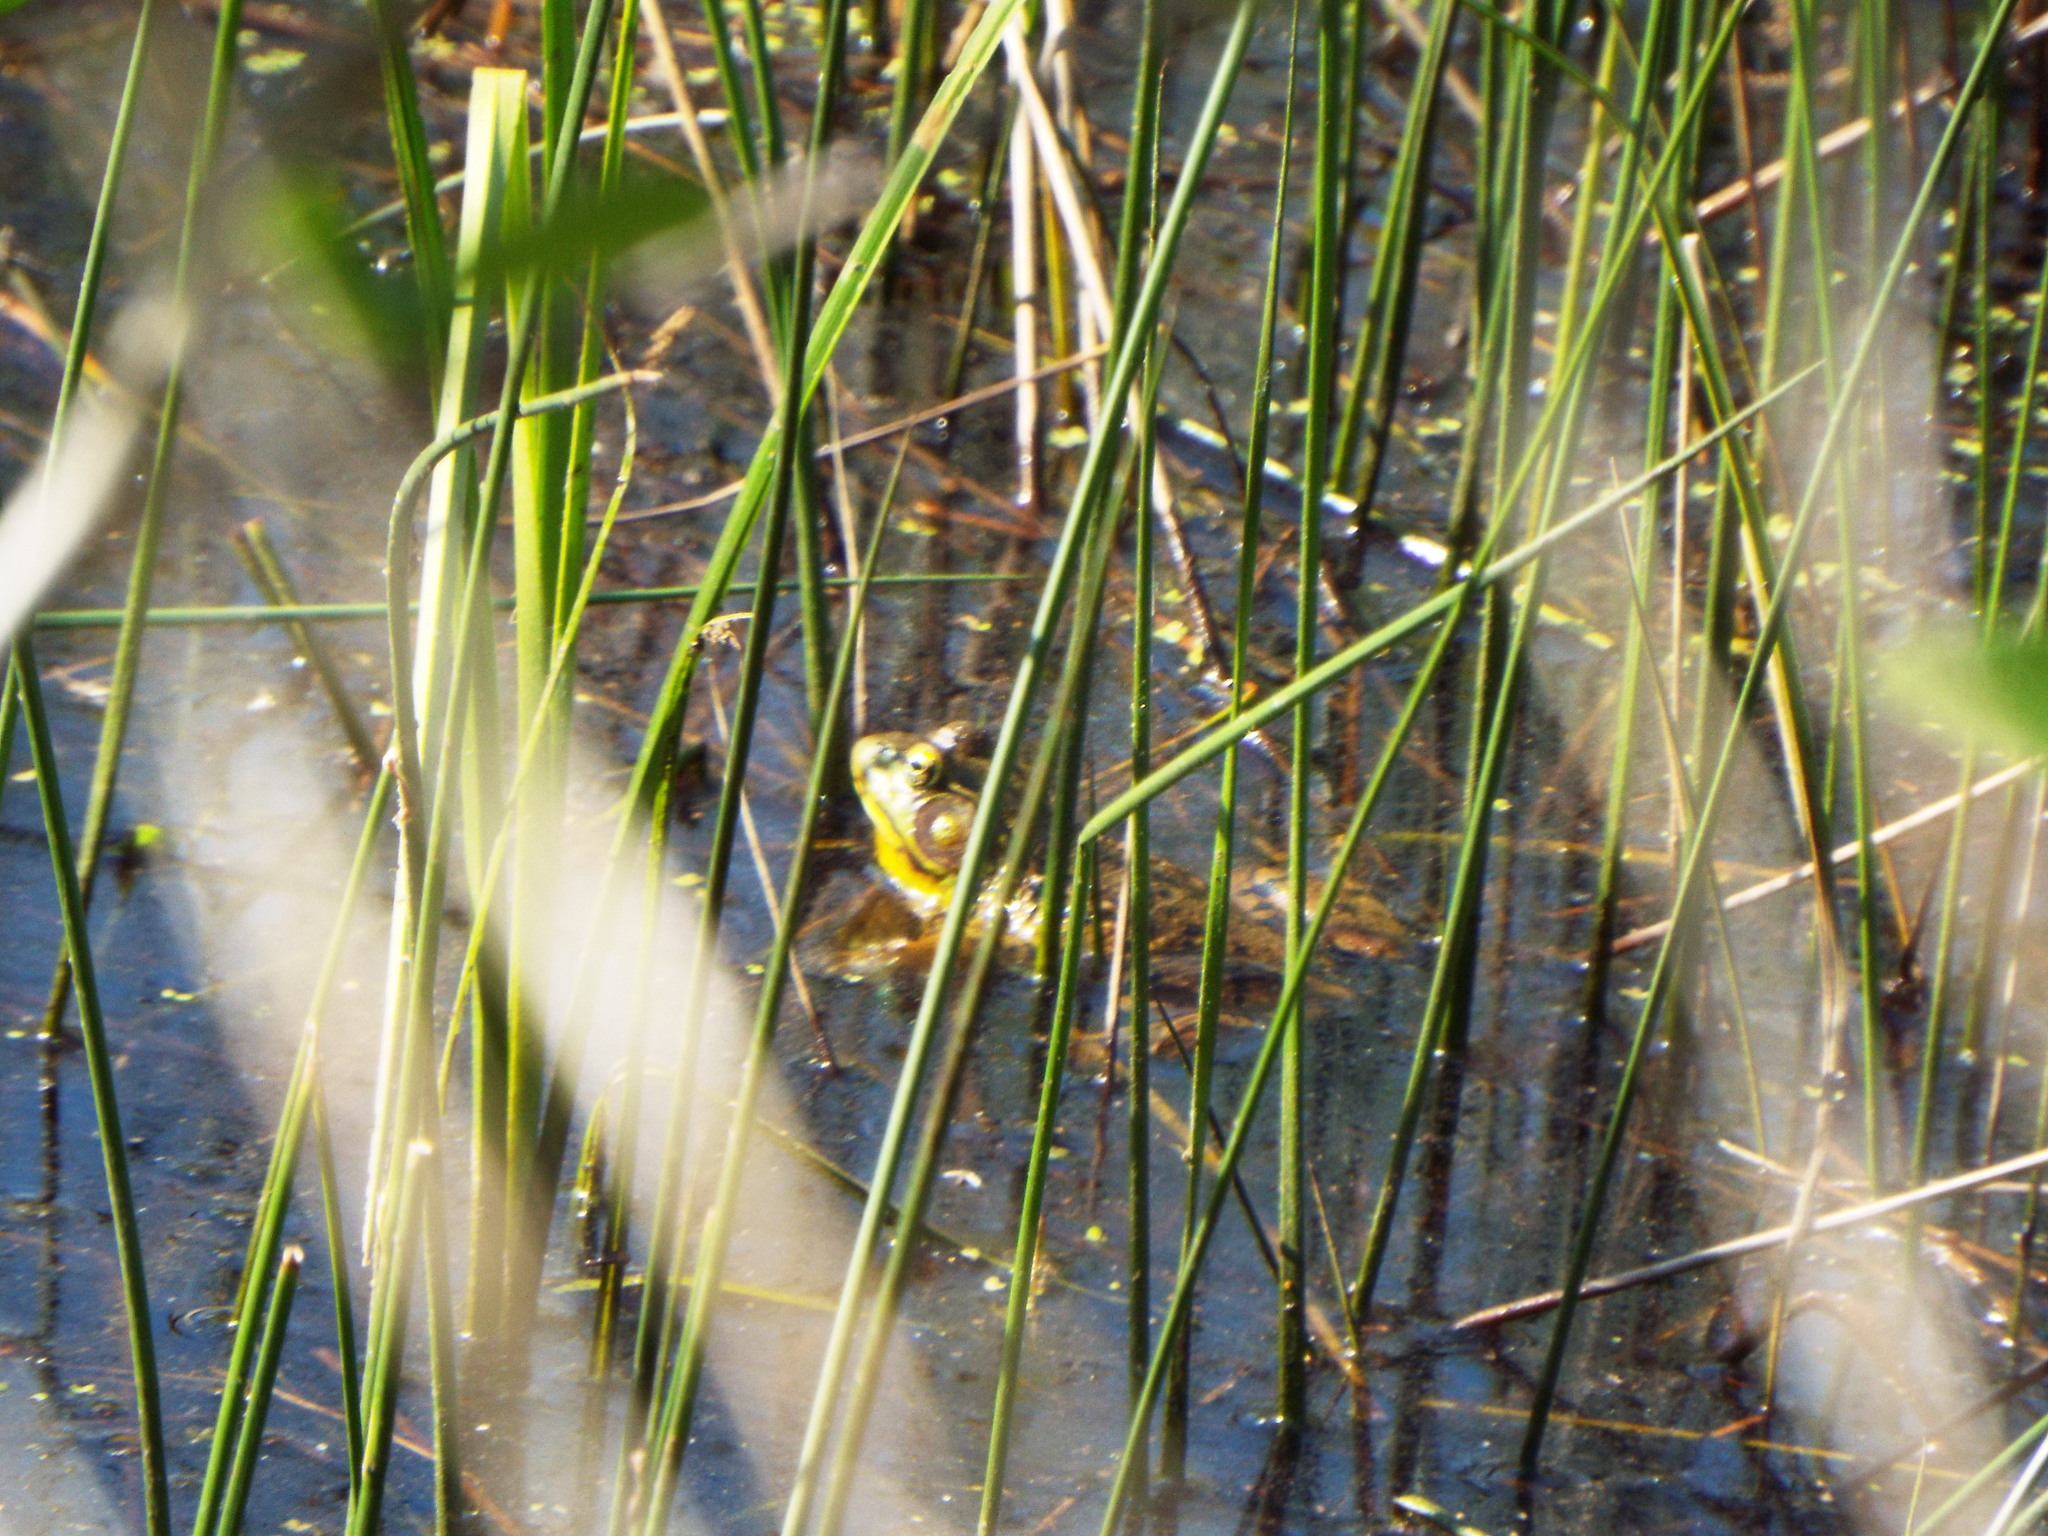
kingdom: Animalia
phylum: Chordata
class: Amphibia
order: Anura
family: Ranidae
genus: Lithobates
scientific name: Lithobates clamitans
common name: Green frog
